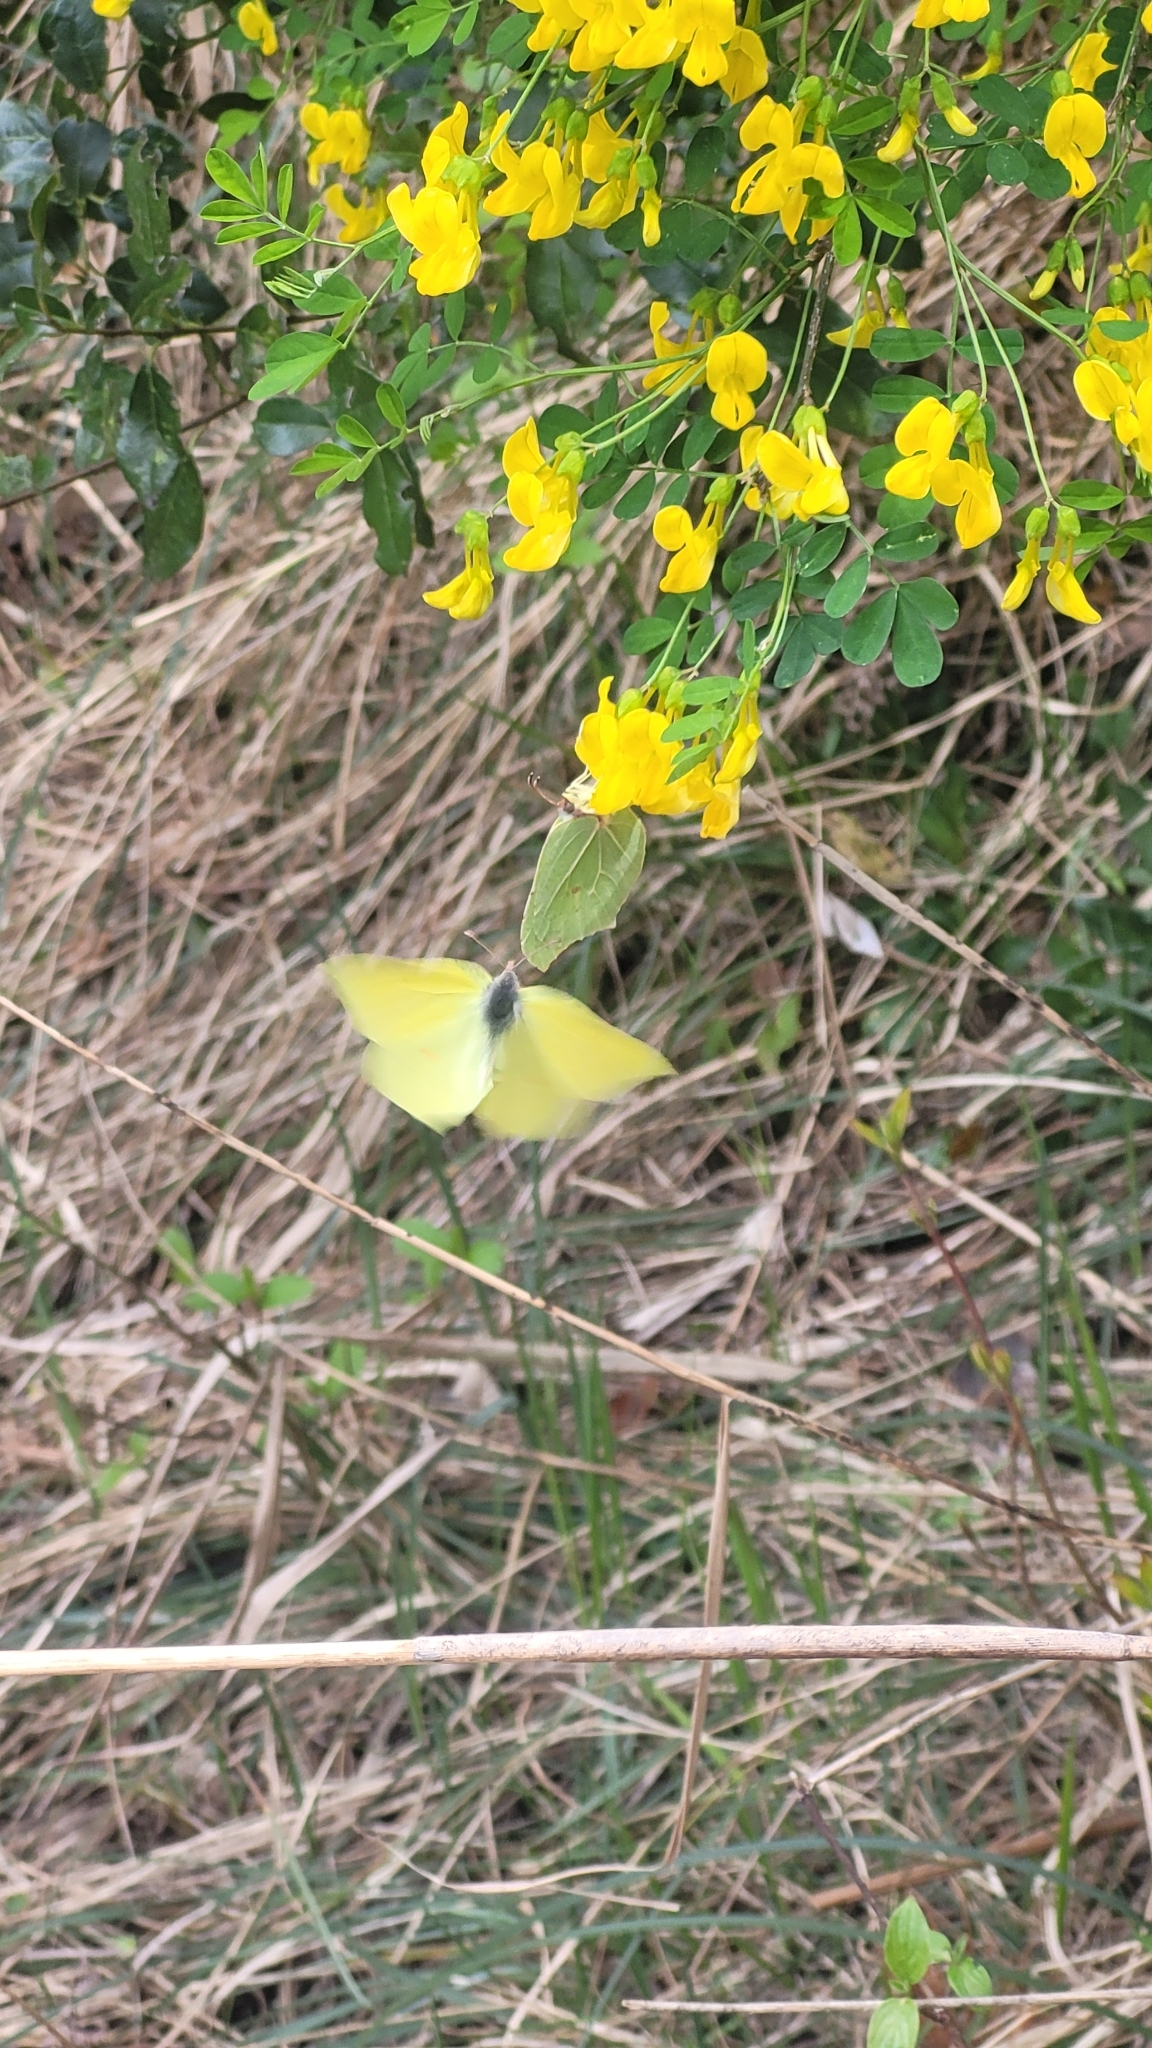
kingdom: Animalia
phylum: Arthropoda
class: Insecta
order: Lepidoptera
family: Pieridae
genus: Gonepteryx
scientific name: Gonepteryx rhamni
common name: Brimstone
